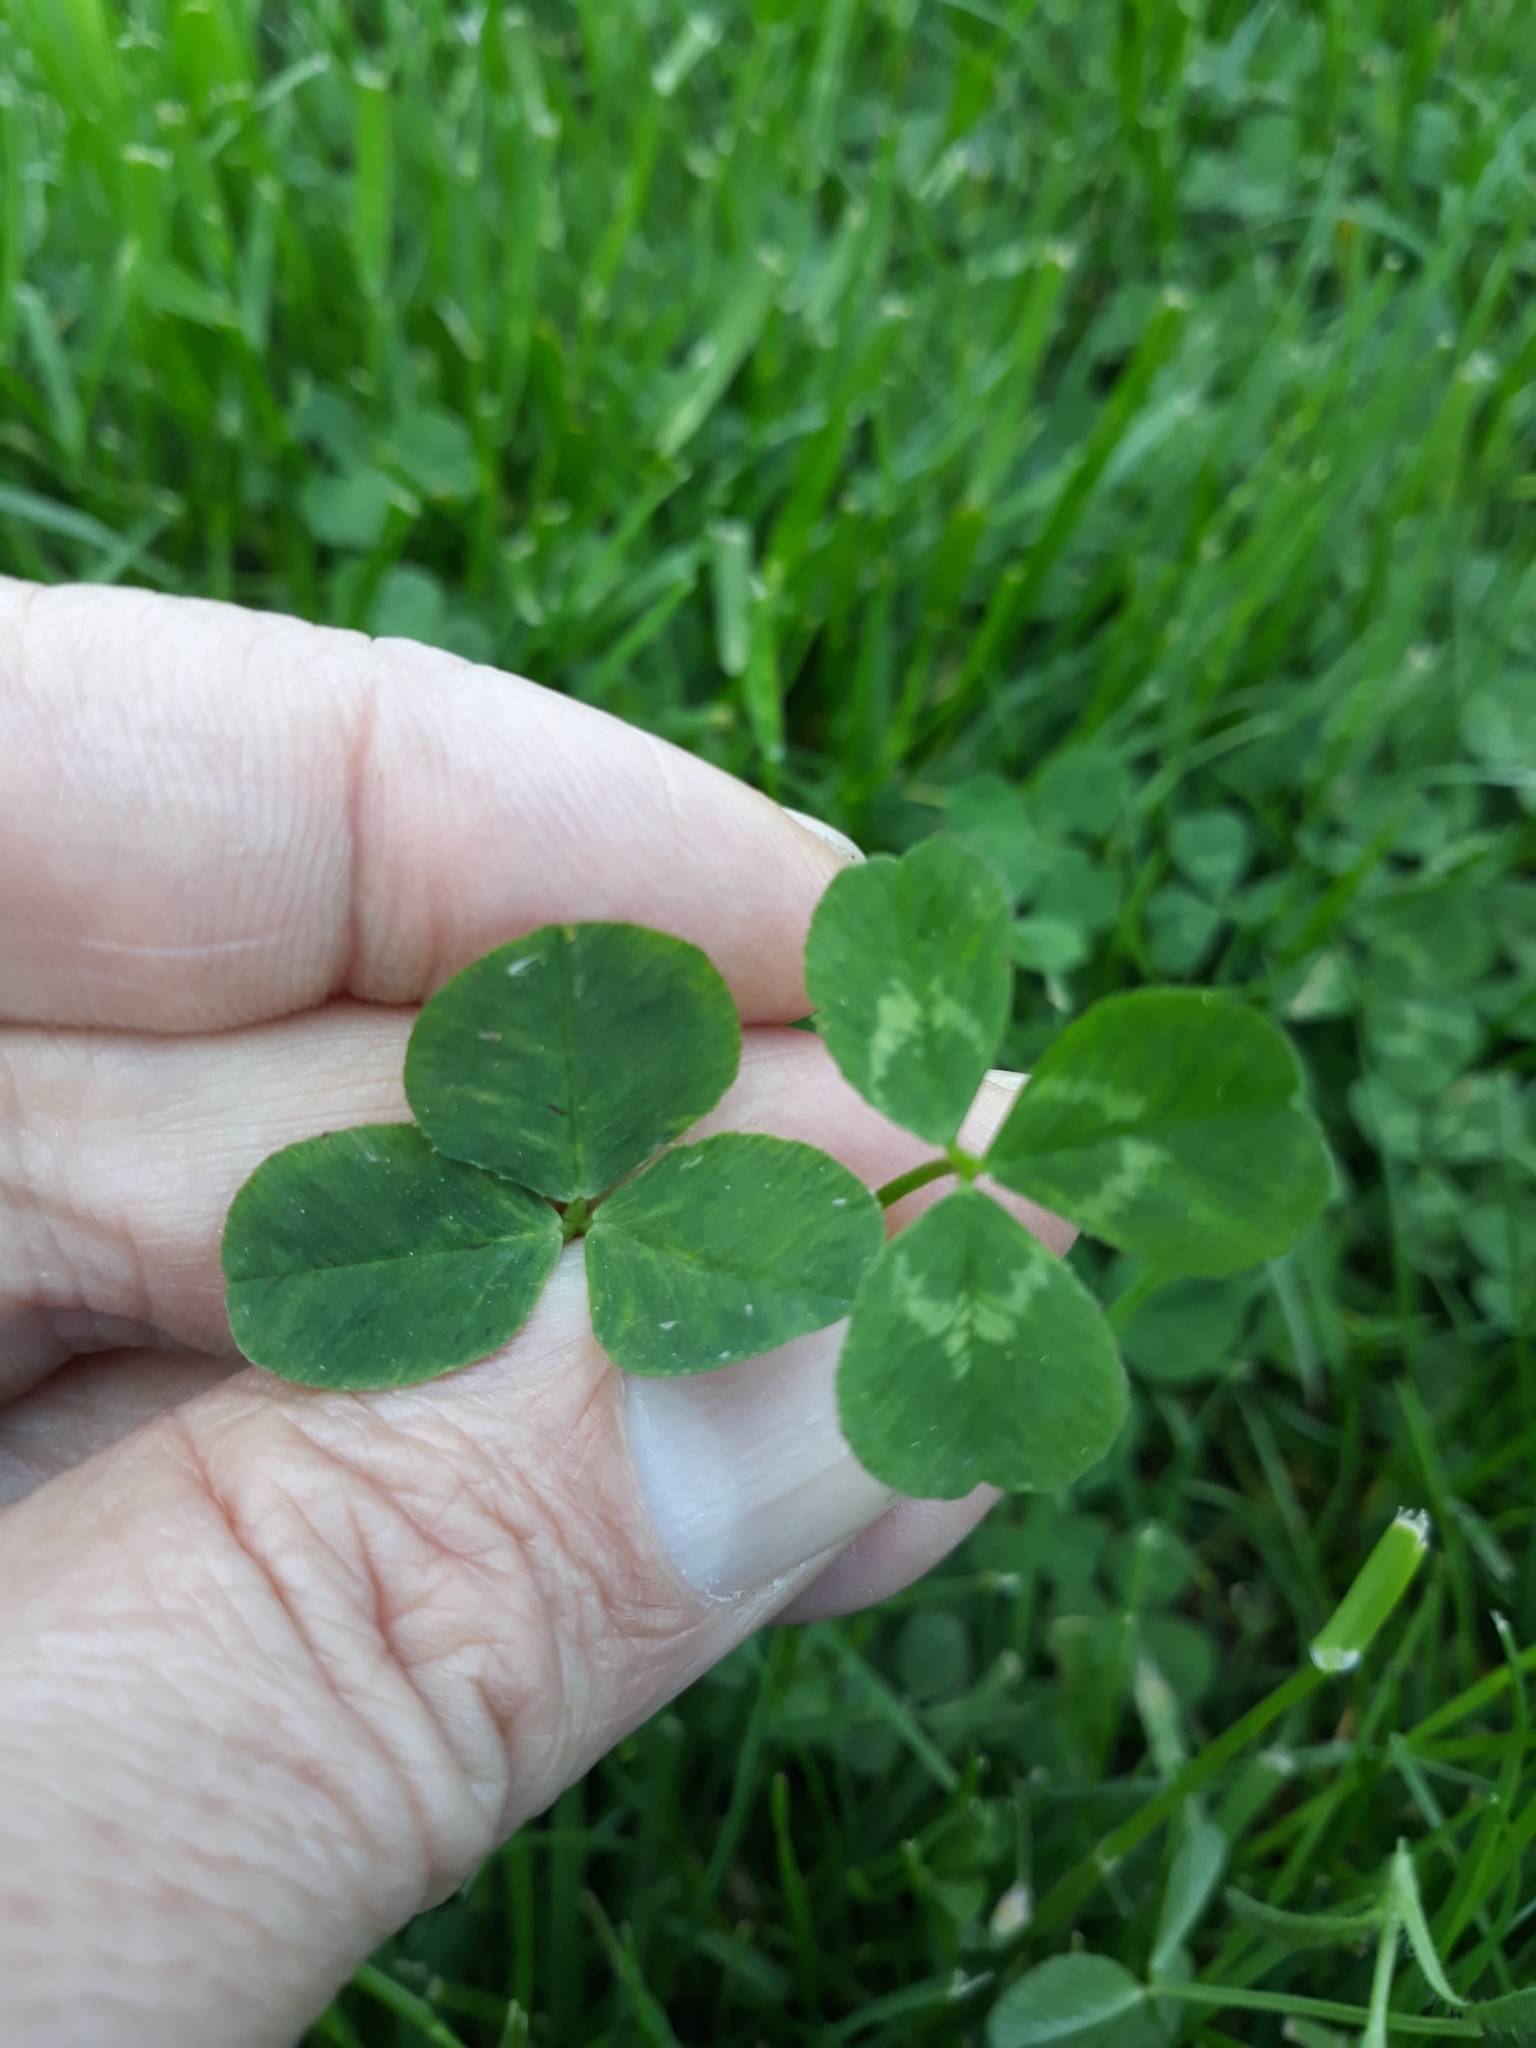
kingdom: Plantae
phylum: Tracheophyta
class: Magnoliopsida
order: Fabales
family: Fabaceae
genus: Trifolium
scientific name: Trifolium repens
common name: White clover
